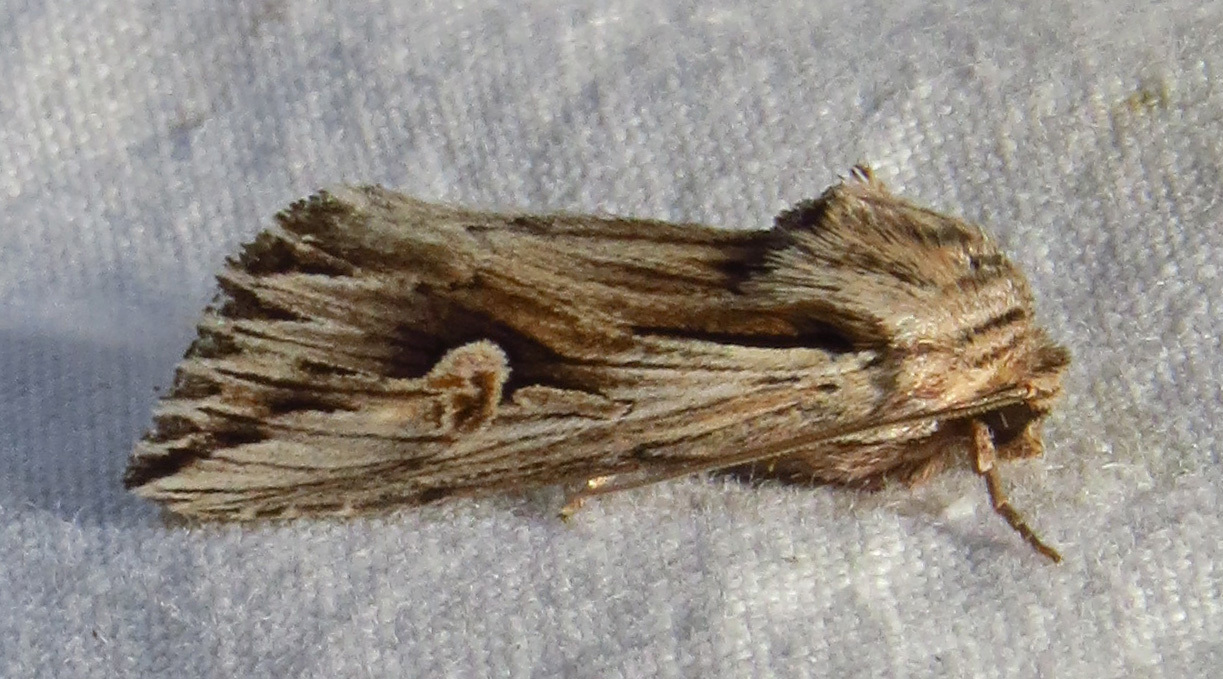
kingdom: Animalia
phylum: Arthropoda
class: Insecta
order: Lepidoptera
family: Noctuidae
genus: Nedra
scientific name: Nedra ramosula
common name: Gray half-spot
